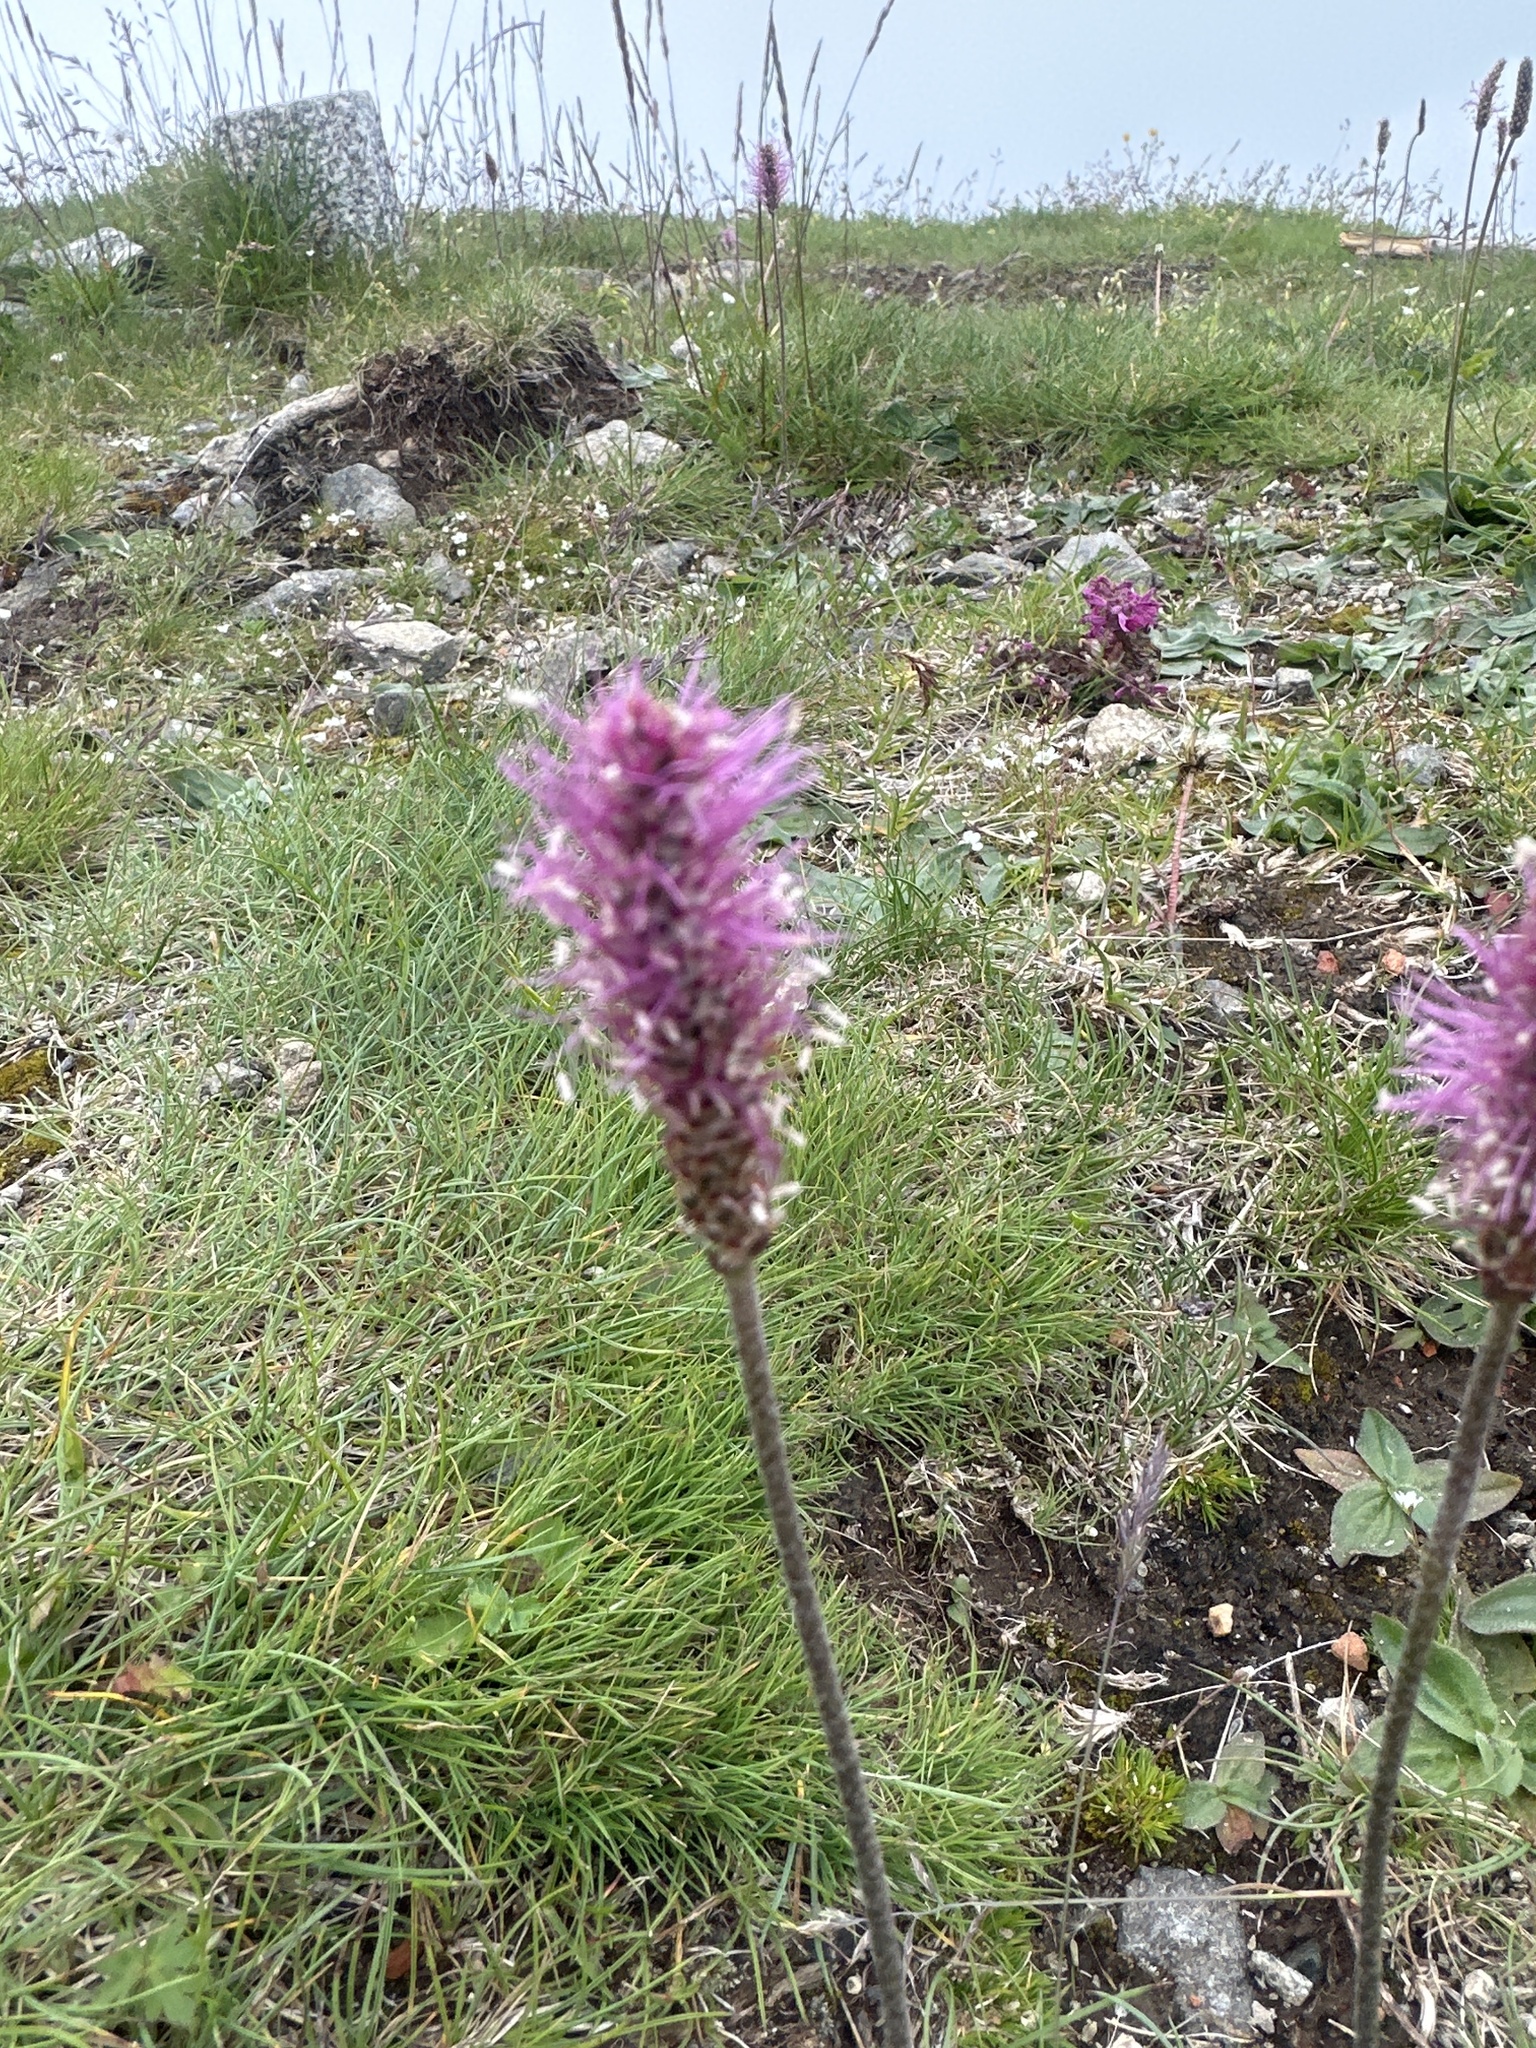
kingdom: Plantae
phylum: Tracheophyta
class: Magnoliopsida
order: Lamiales
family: Plantaginaceae
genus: Plantago
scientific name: Plantago media
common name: Hoary plantain
